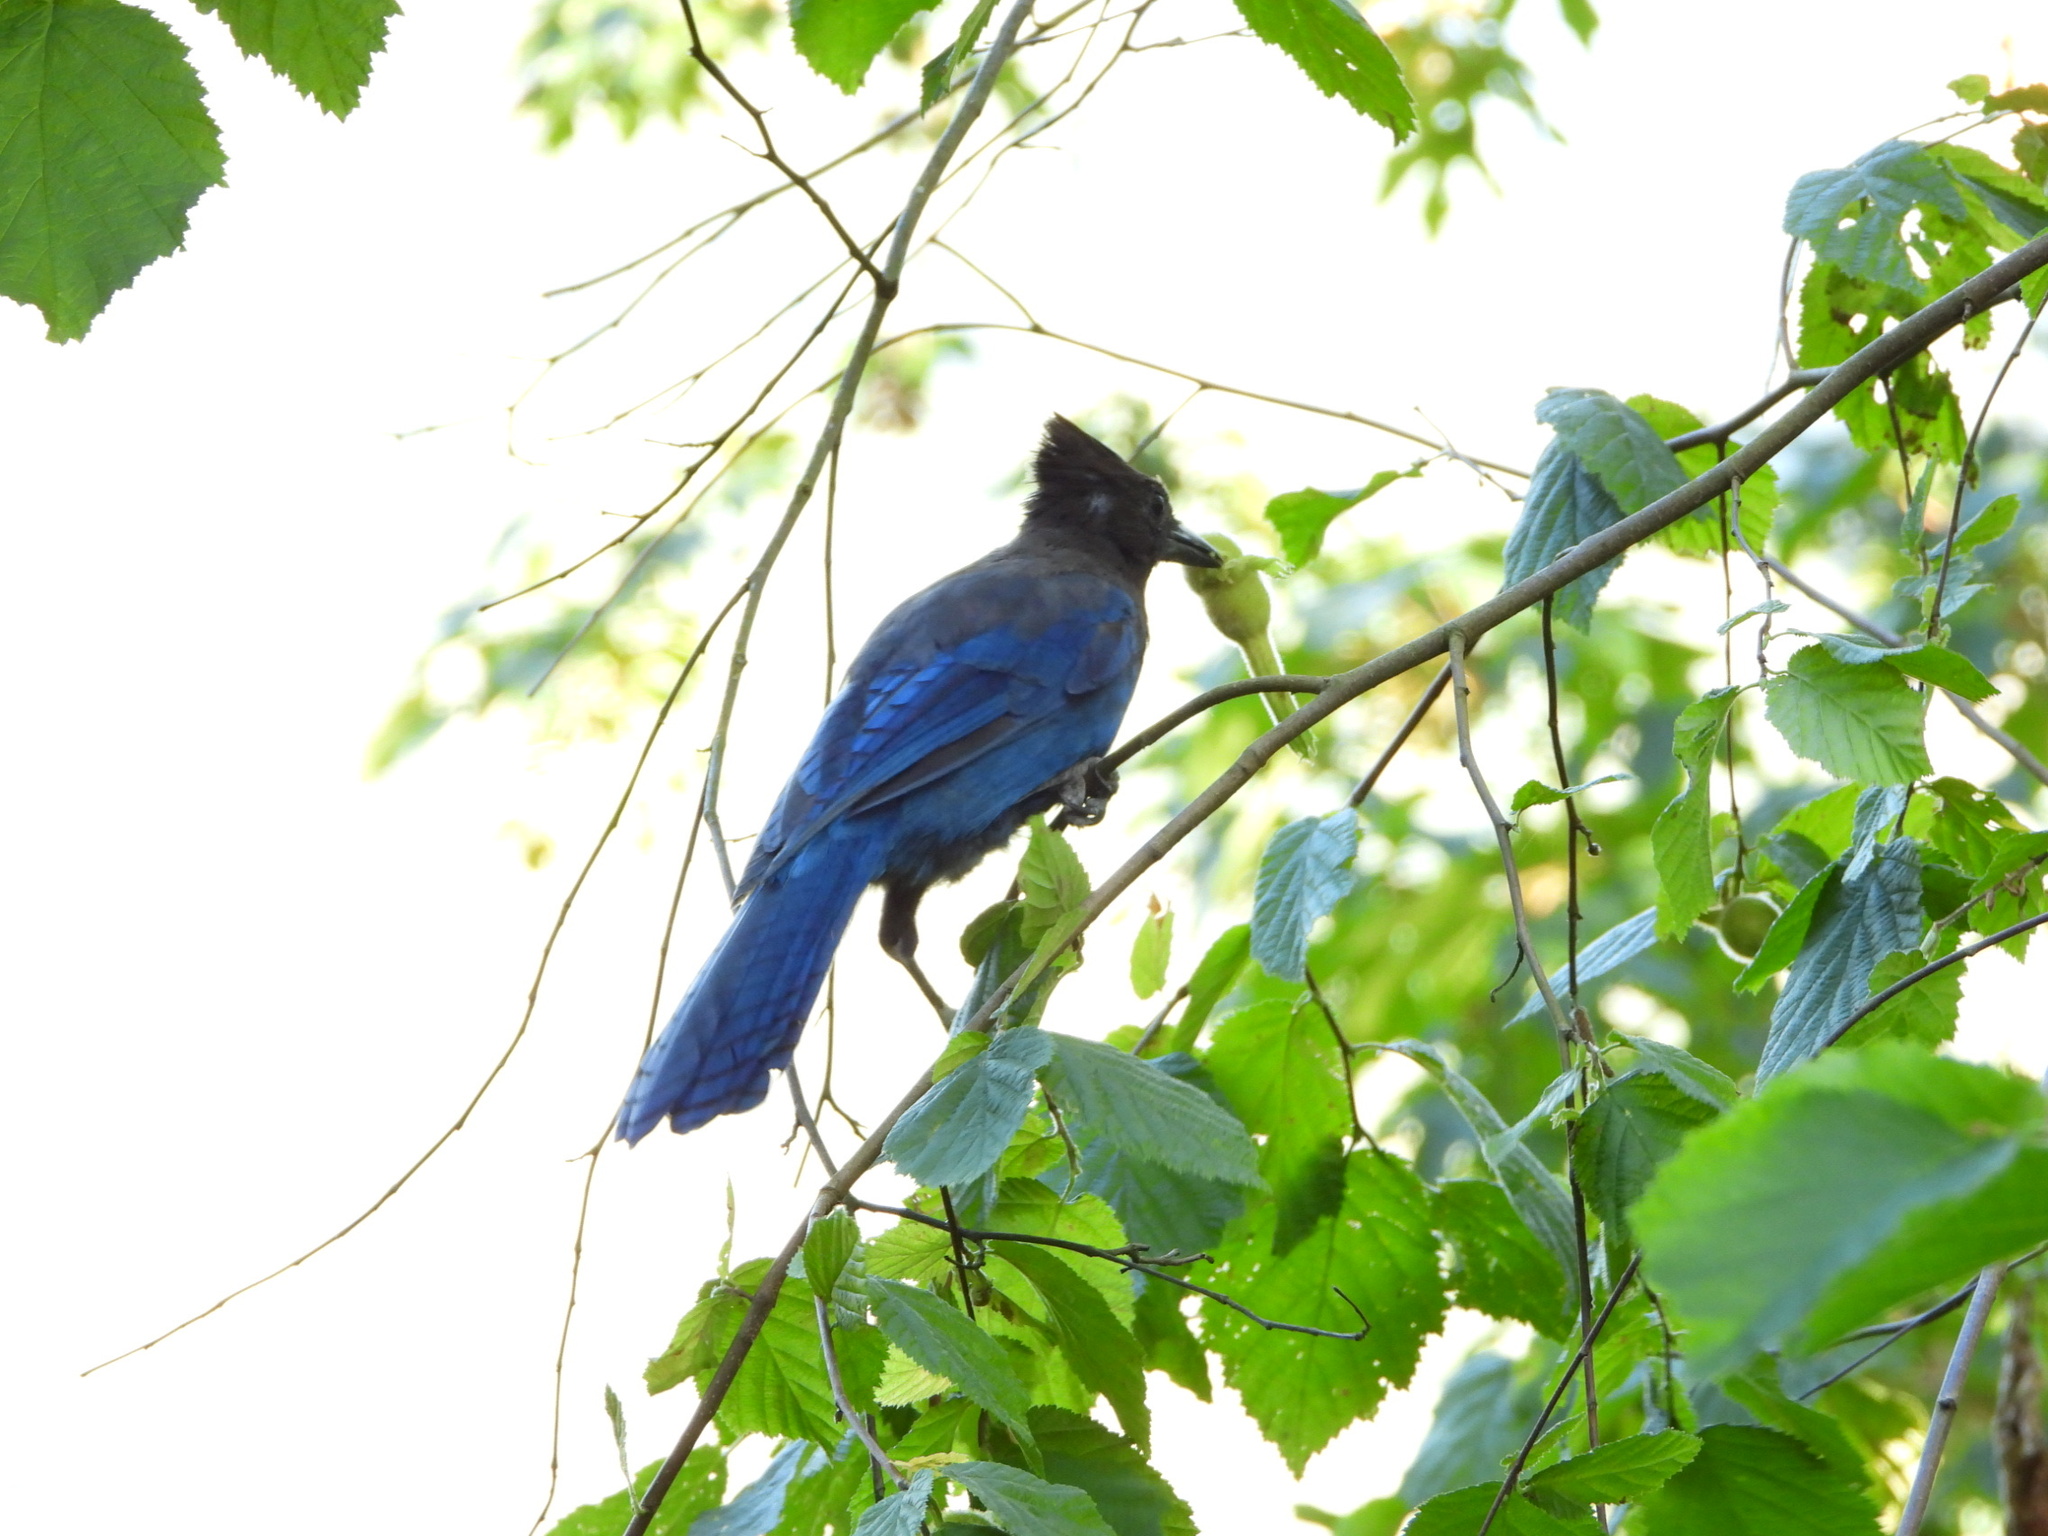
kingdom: Animalia
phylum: Chordata
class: Aves
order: Passeriformes
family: Corvidae
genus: Cyanocitta
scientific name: Cyanocitta stelleri
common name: Steller's jay
